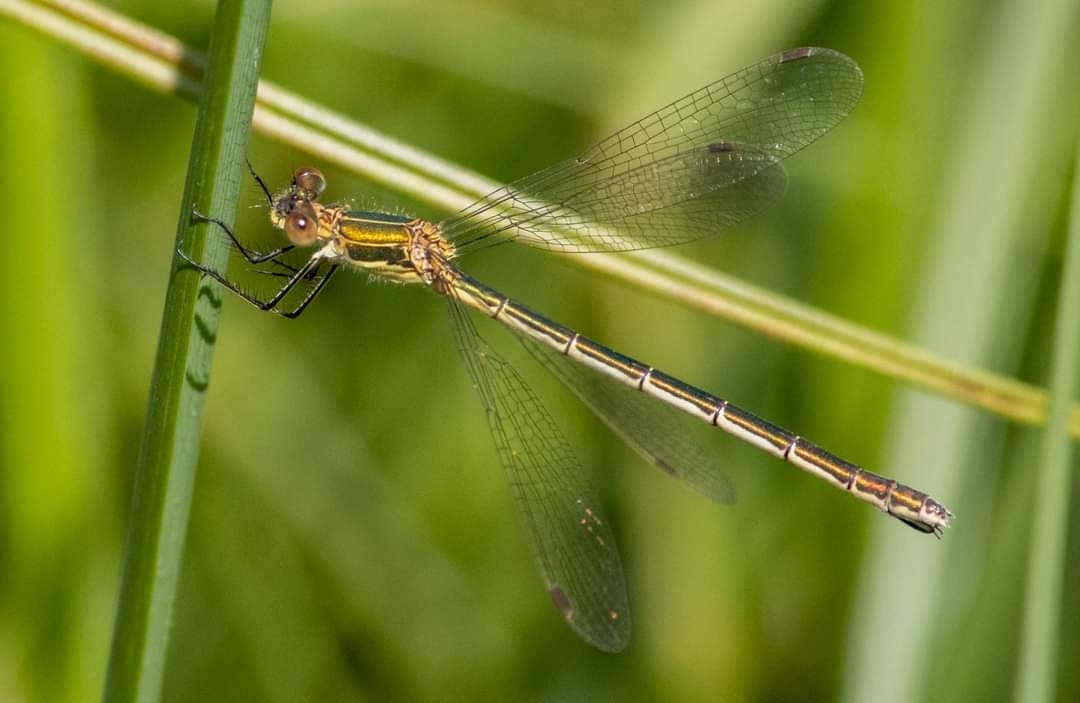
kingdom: Animalia
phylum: Arthropoda
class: Insecta
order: Odonata
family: Lestidae
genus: Lestes
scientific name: Lestes sponsa
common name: Common spreadwing
